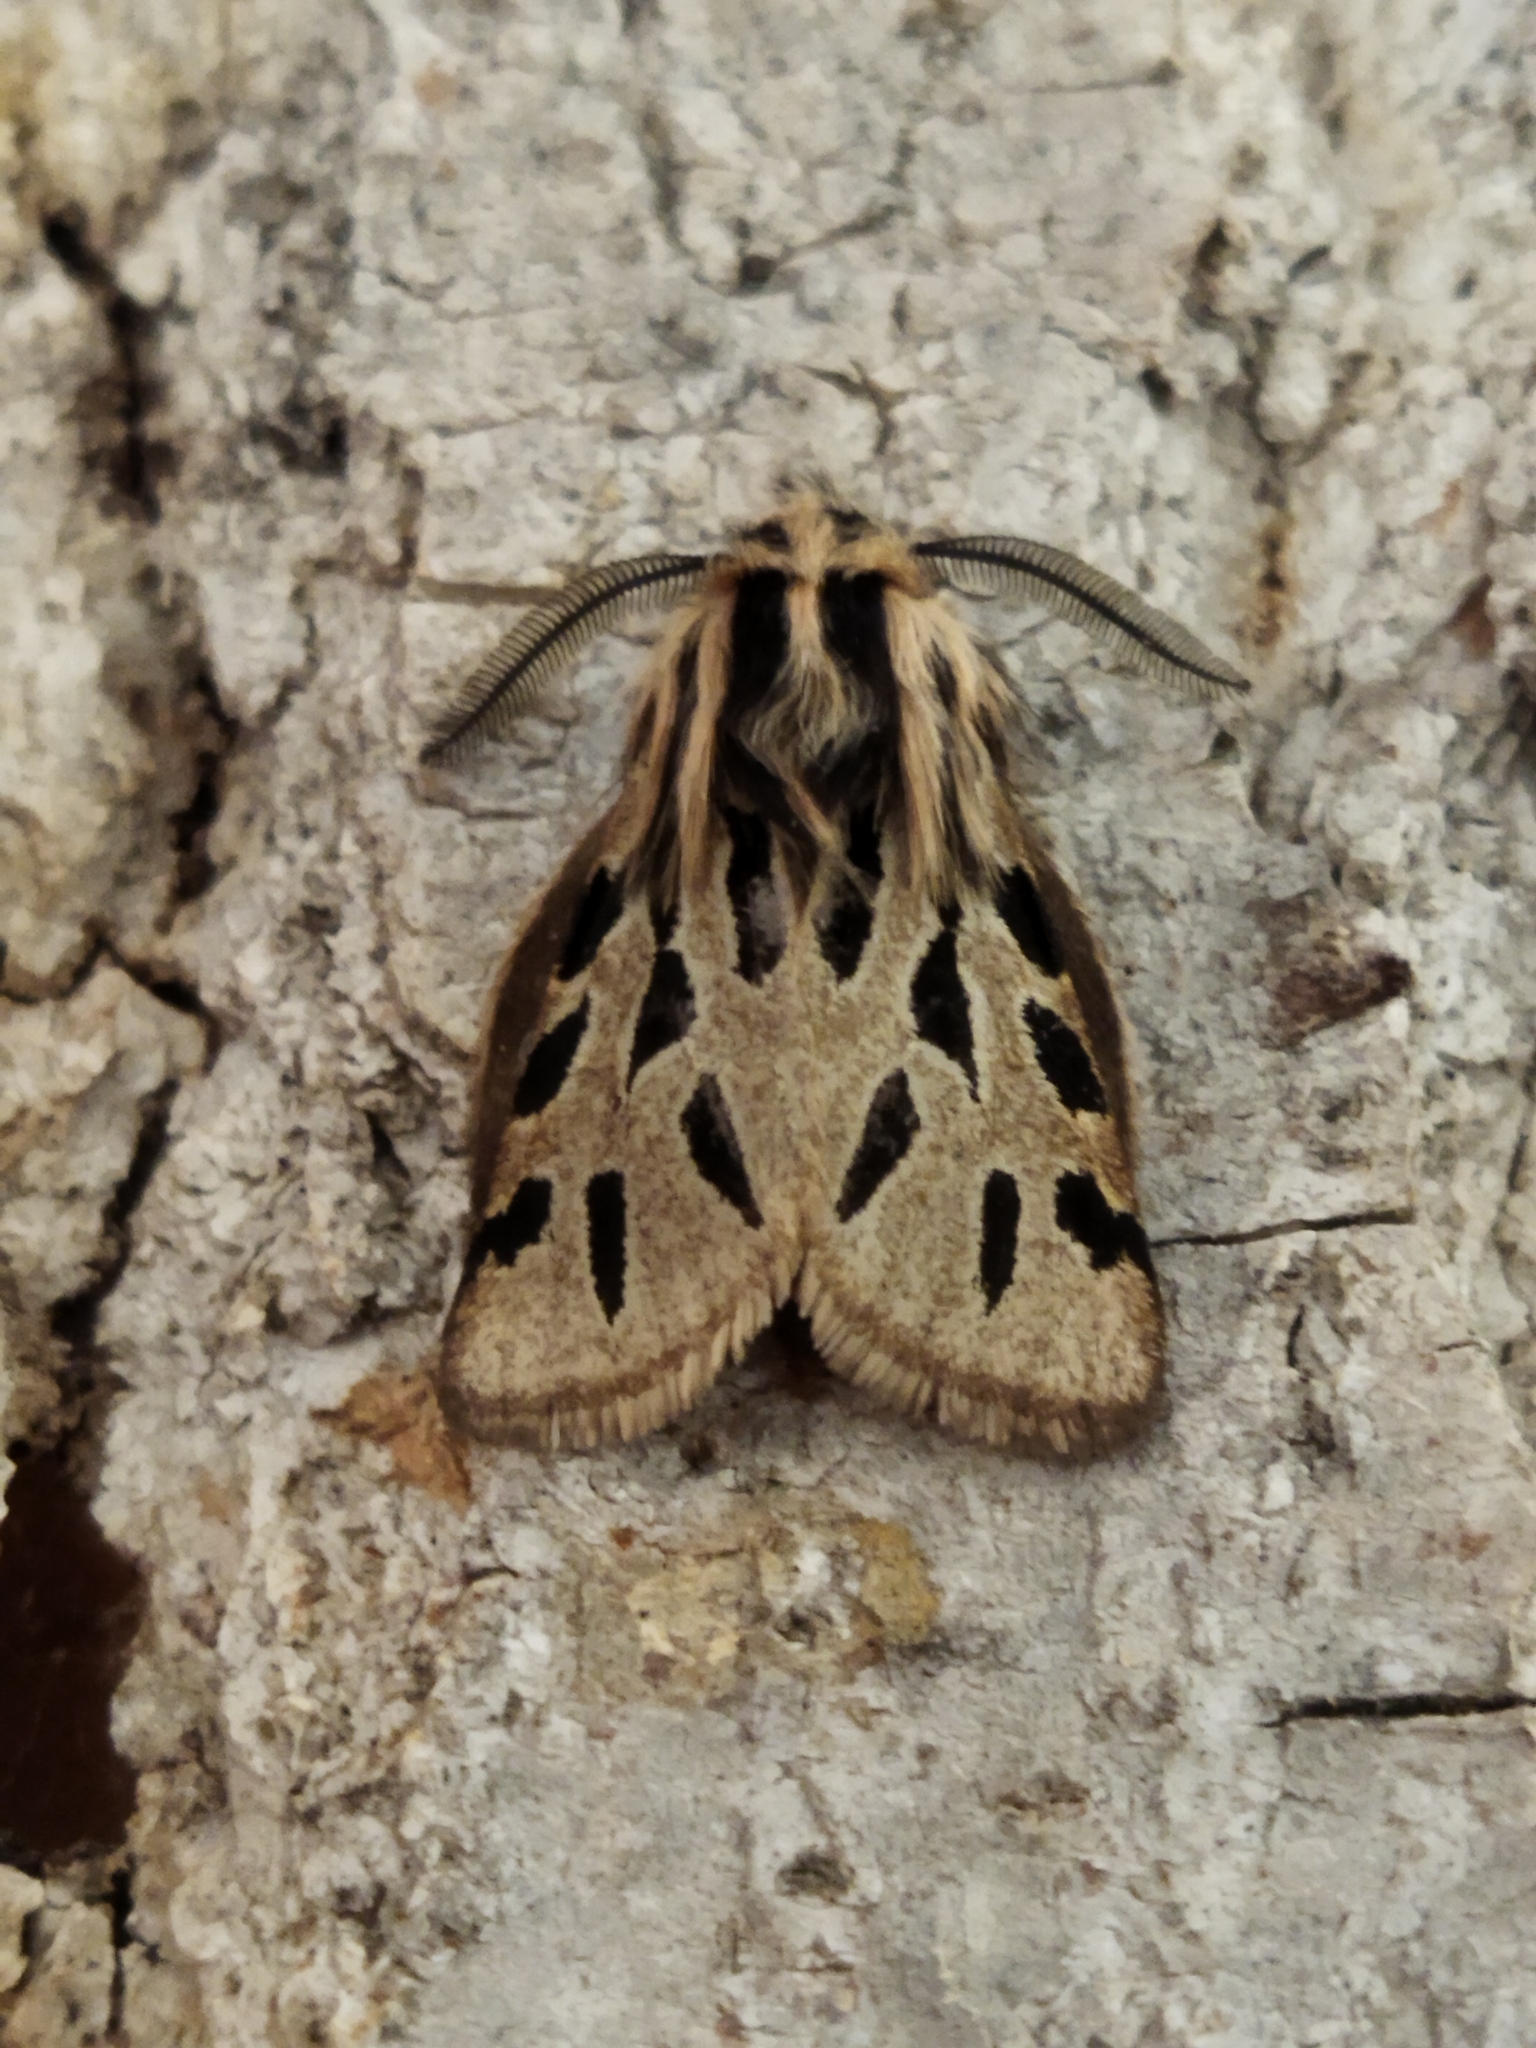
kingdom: Animalia
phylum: Arthropoda
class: Insecta
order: Lepidoptera
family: Erebidae
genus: Ocnogyna
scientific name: Ocnogyna parasita
